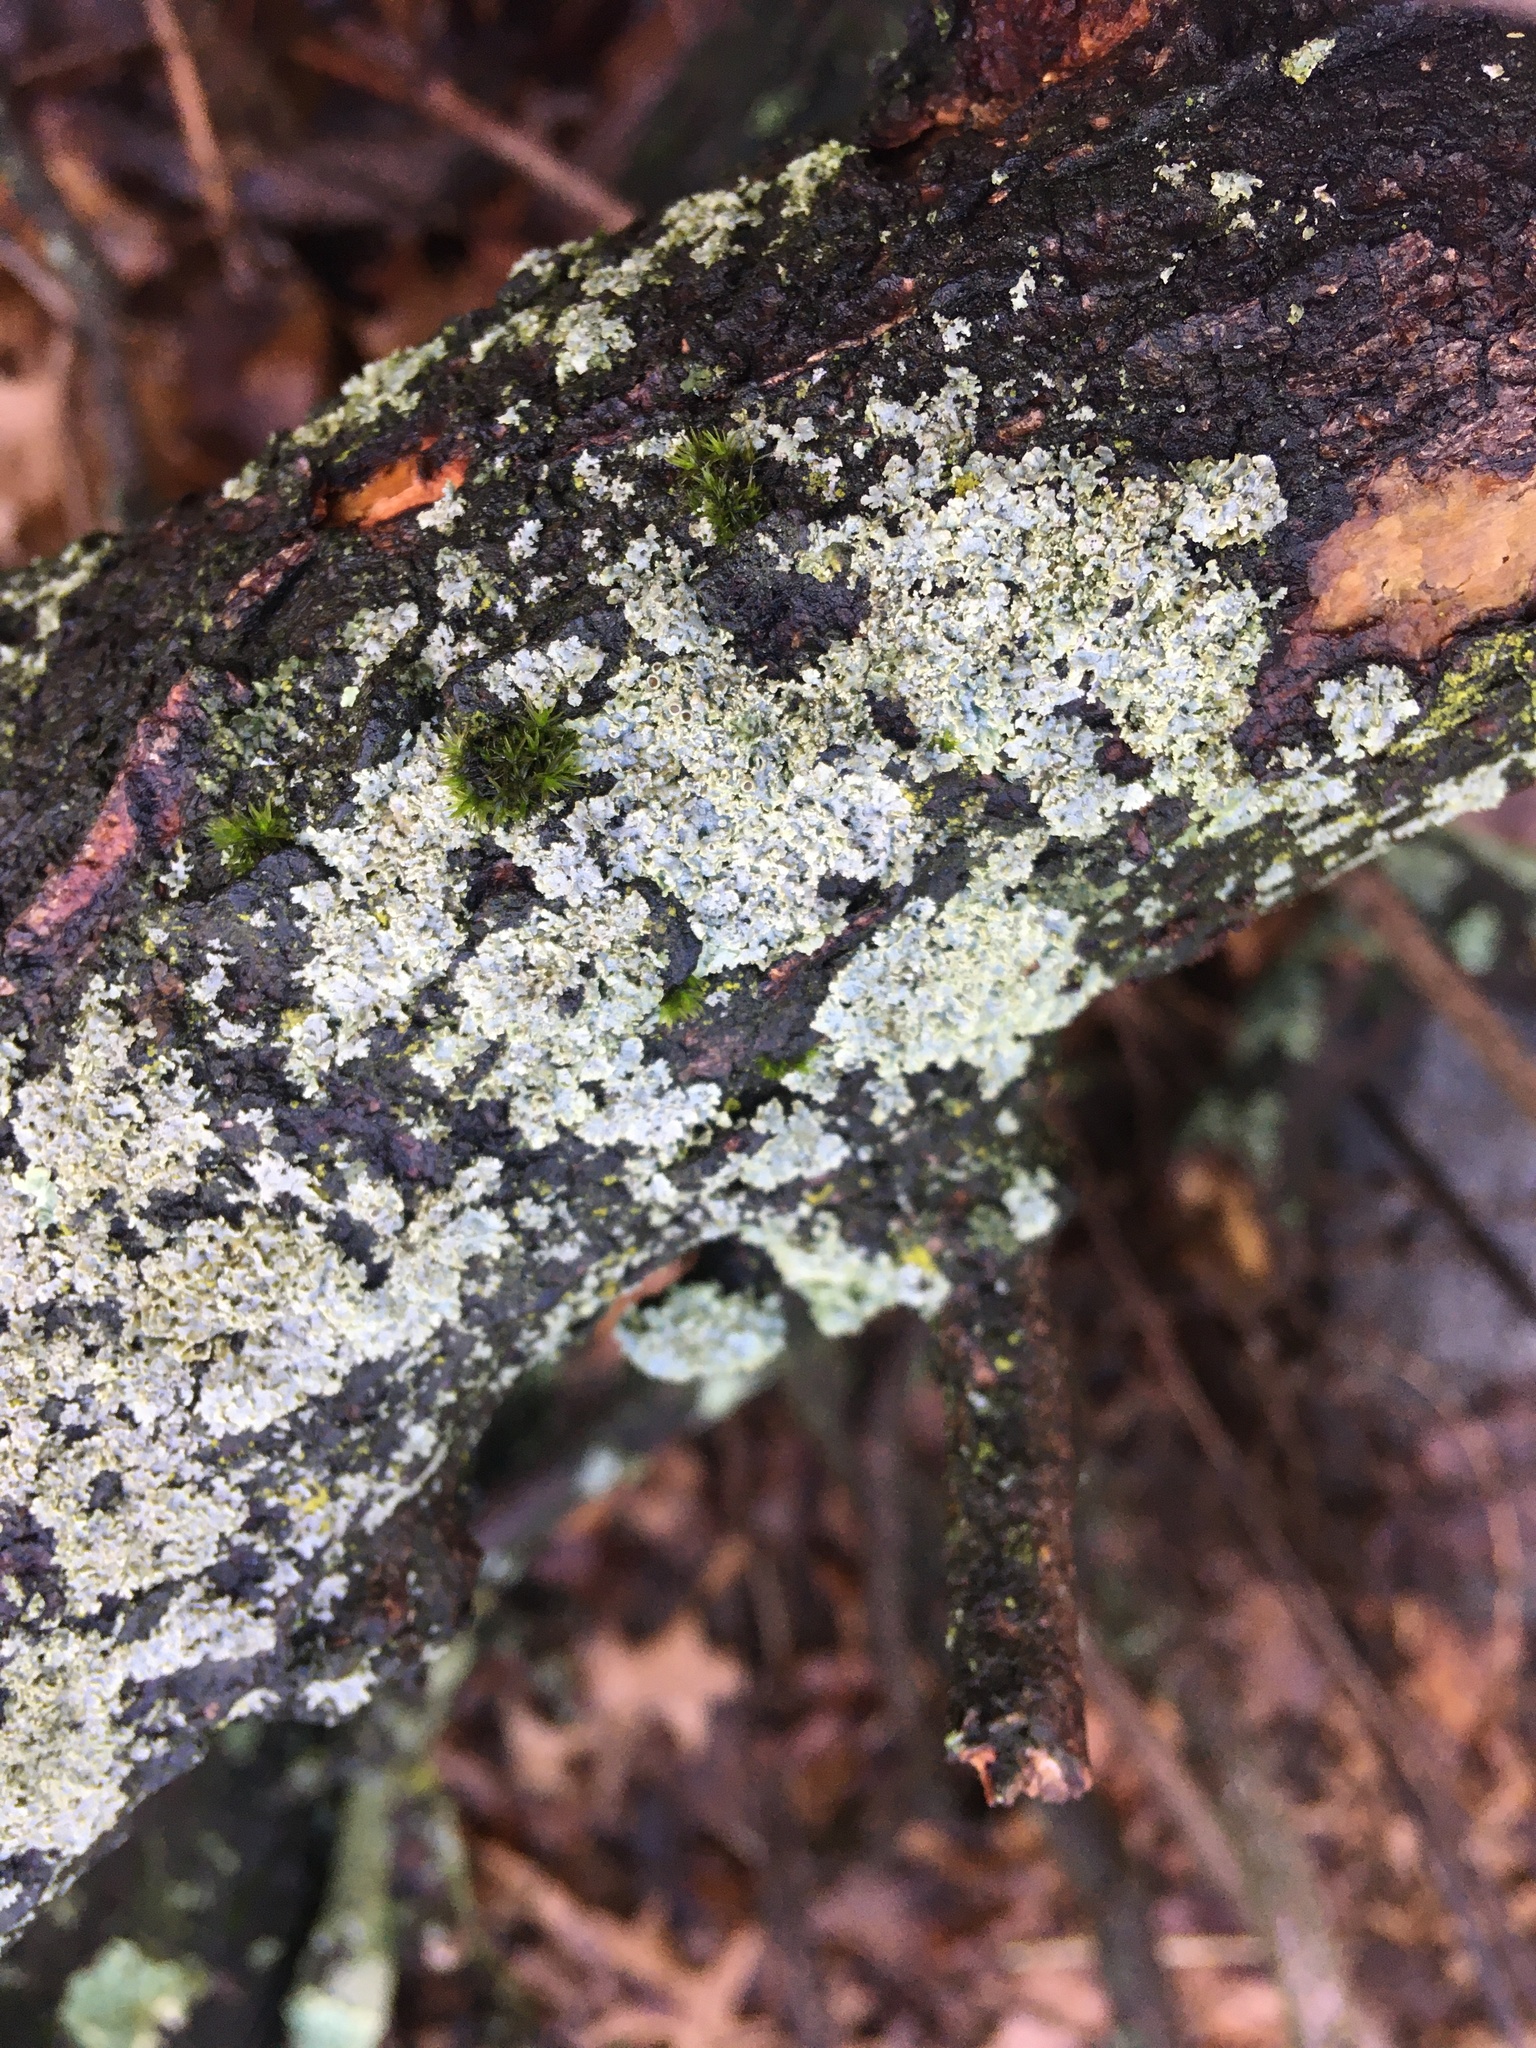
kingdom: Fungi
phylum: Ascomycota
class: Lecanoromycetes
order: Caliciales
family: Physciaceae
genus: Physcia
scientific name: Physcia millegrana
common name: Rosette lichen
